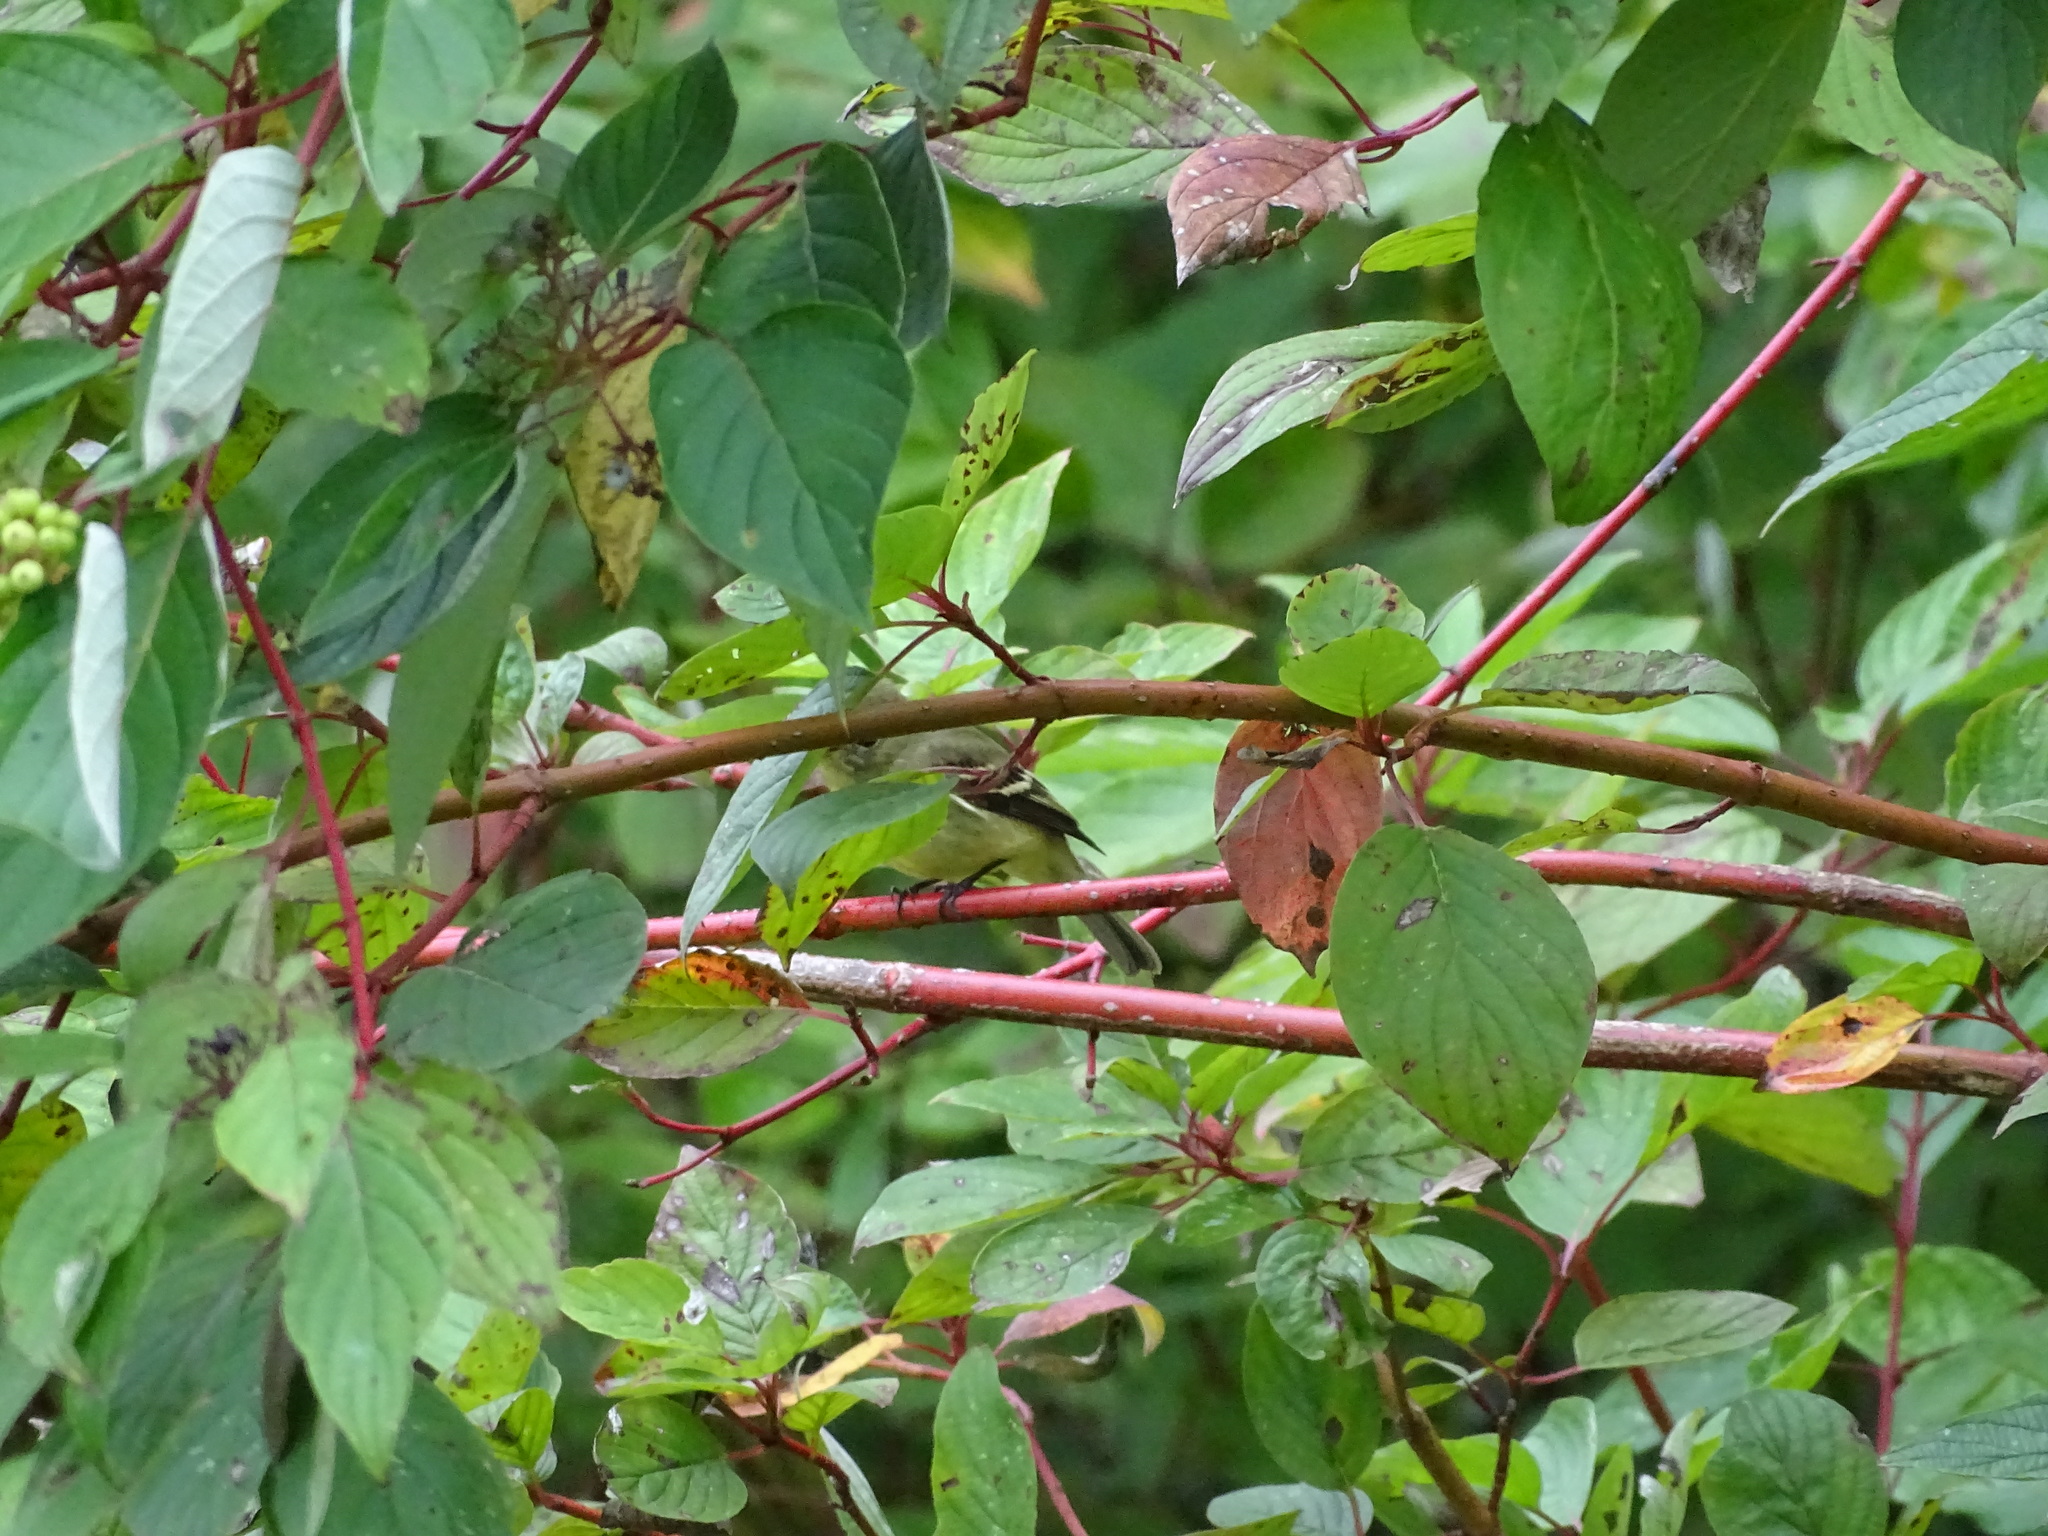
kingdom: Animalia
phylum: Chordata
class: Aves
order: Passeriformes
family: Tyrannidae
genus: Empidonax
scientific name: Empidonax
